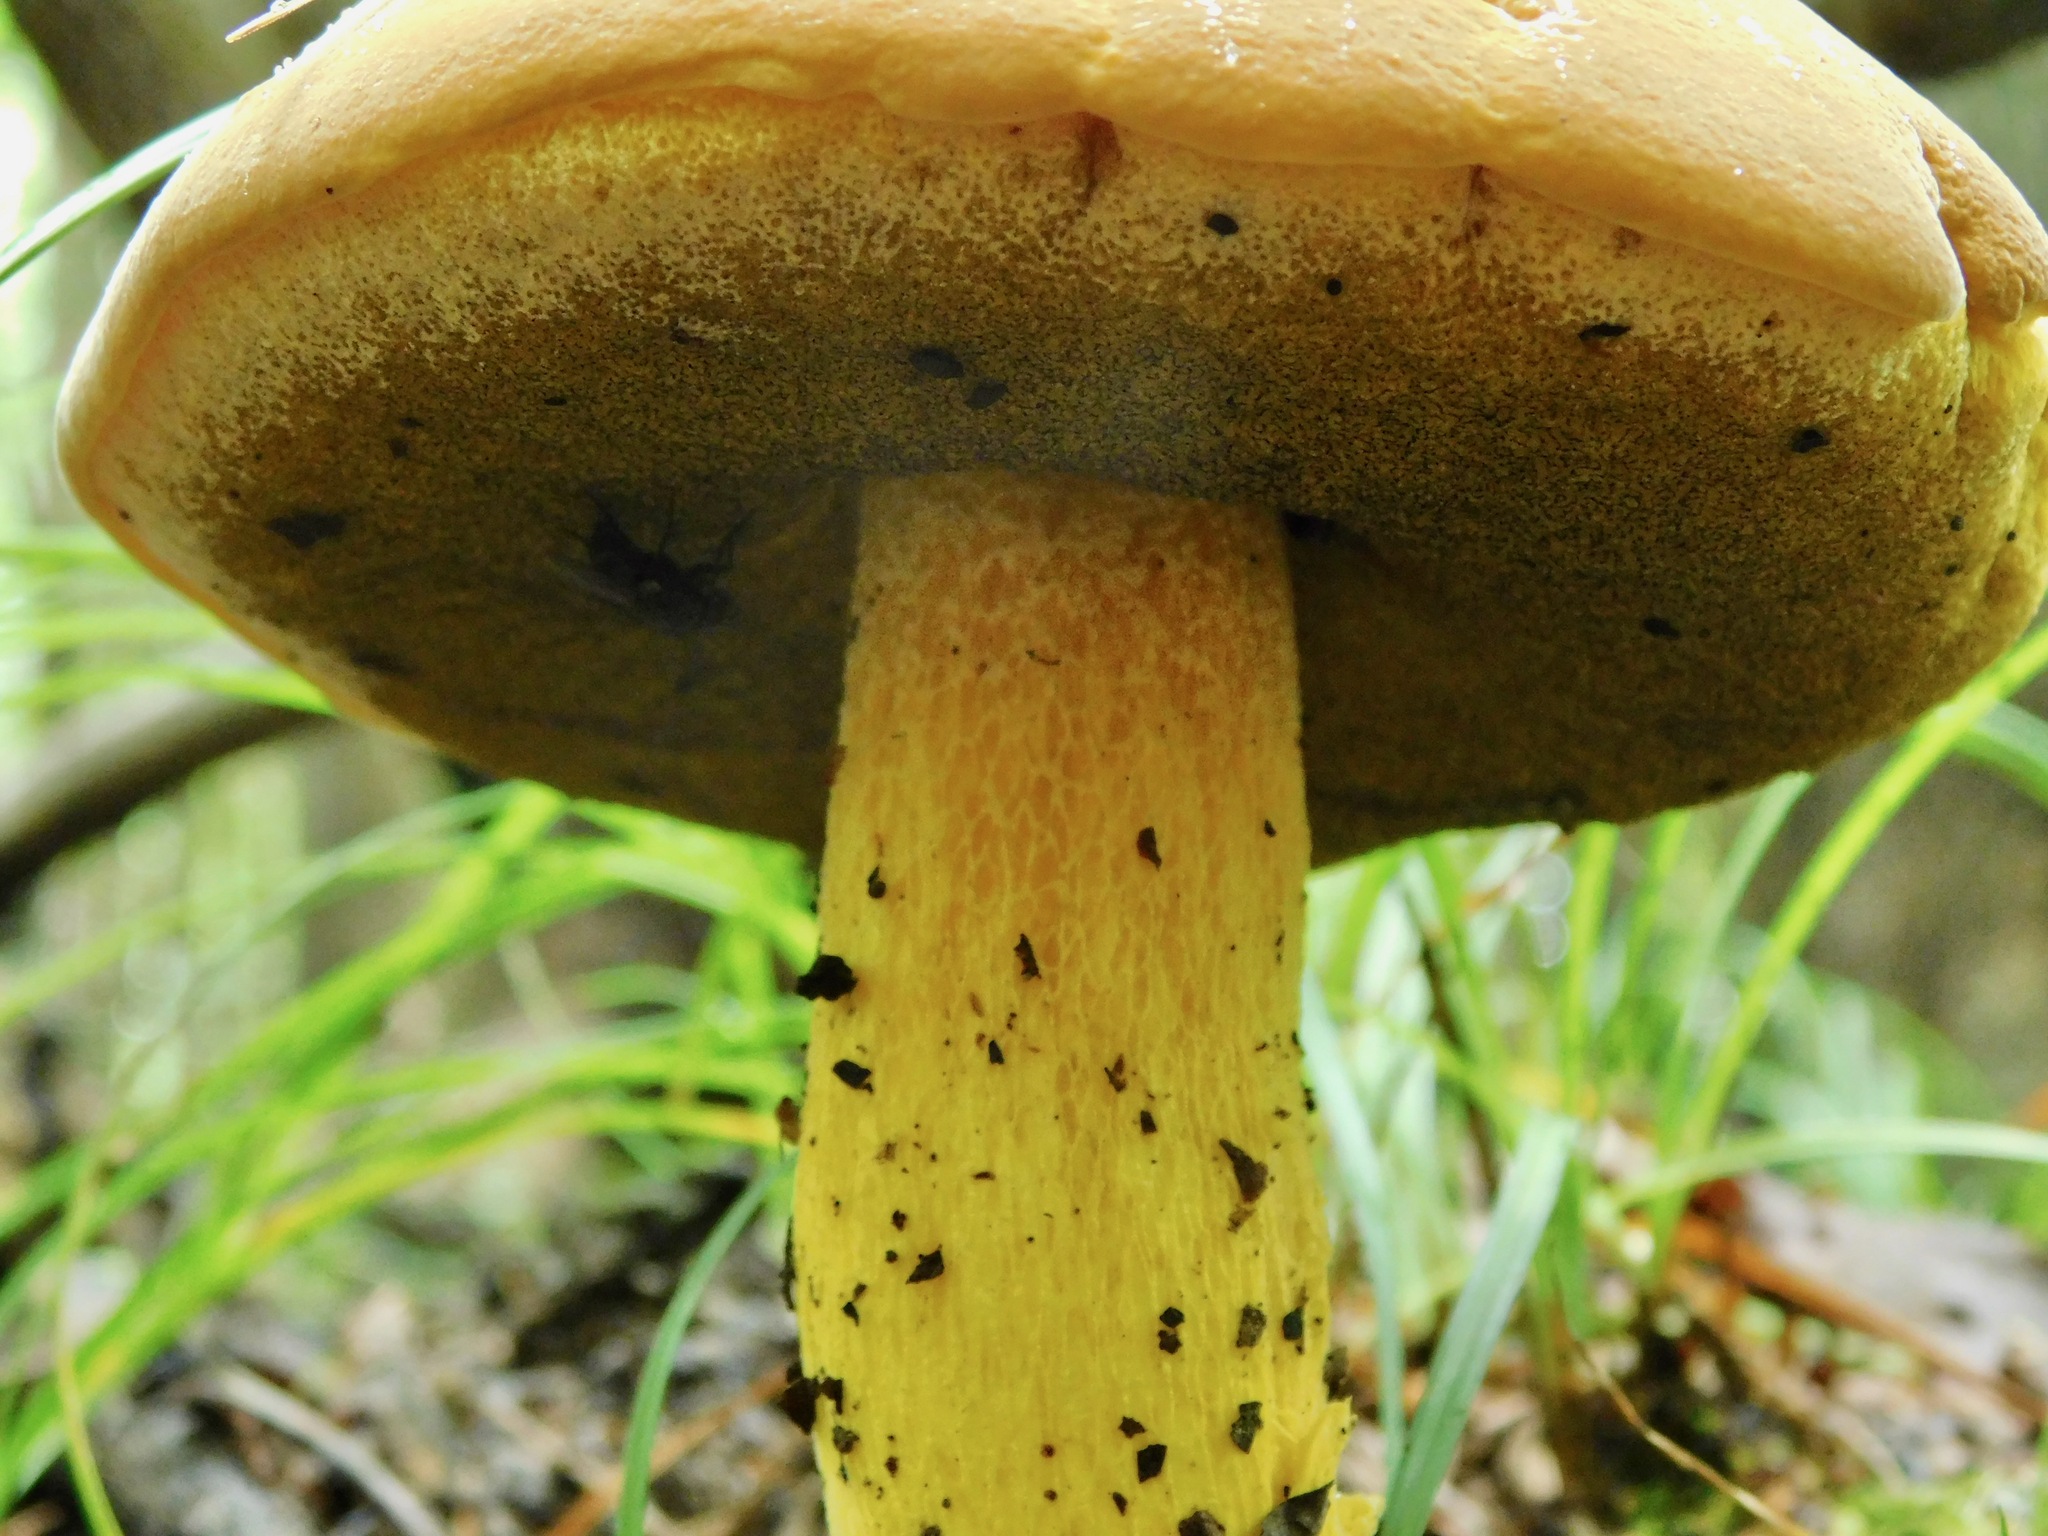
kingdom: Fungi
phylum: Basidiomycota
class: Agaricomycetes
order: Boletales
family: Boletaceae
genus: Boletus
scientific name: Boletus auripes
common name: Butter-foot bolete
